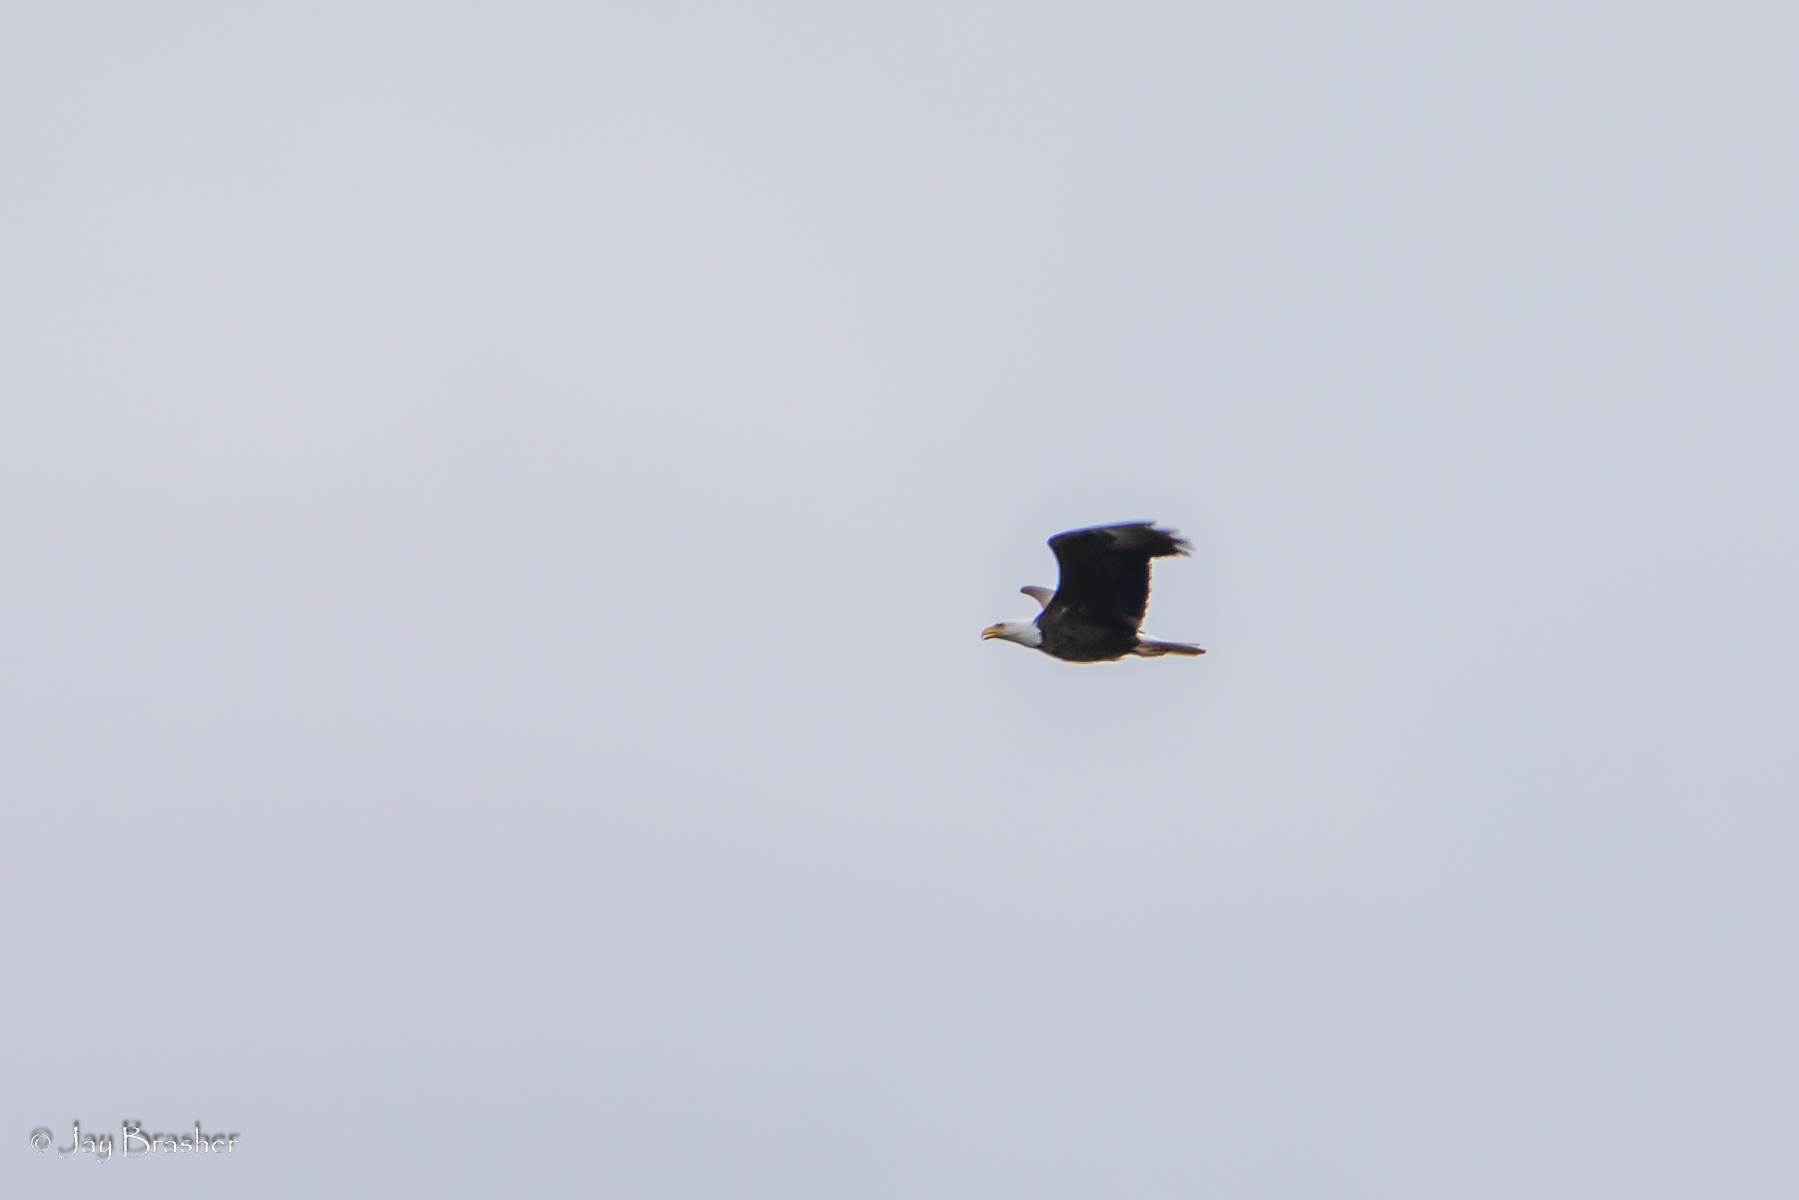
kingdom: Animalia
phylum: Chordata
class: Aves
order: Accipitriformes
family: Accipitridae
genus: Haliaeetus
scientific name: Haliaeetus leucocephalus
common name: Bald eagle
